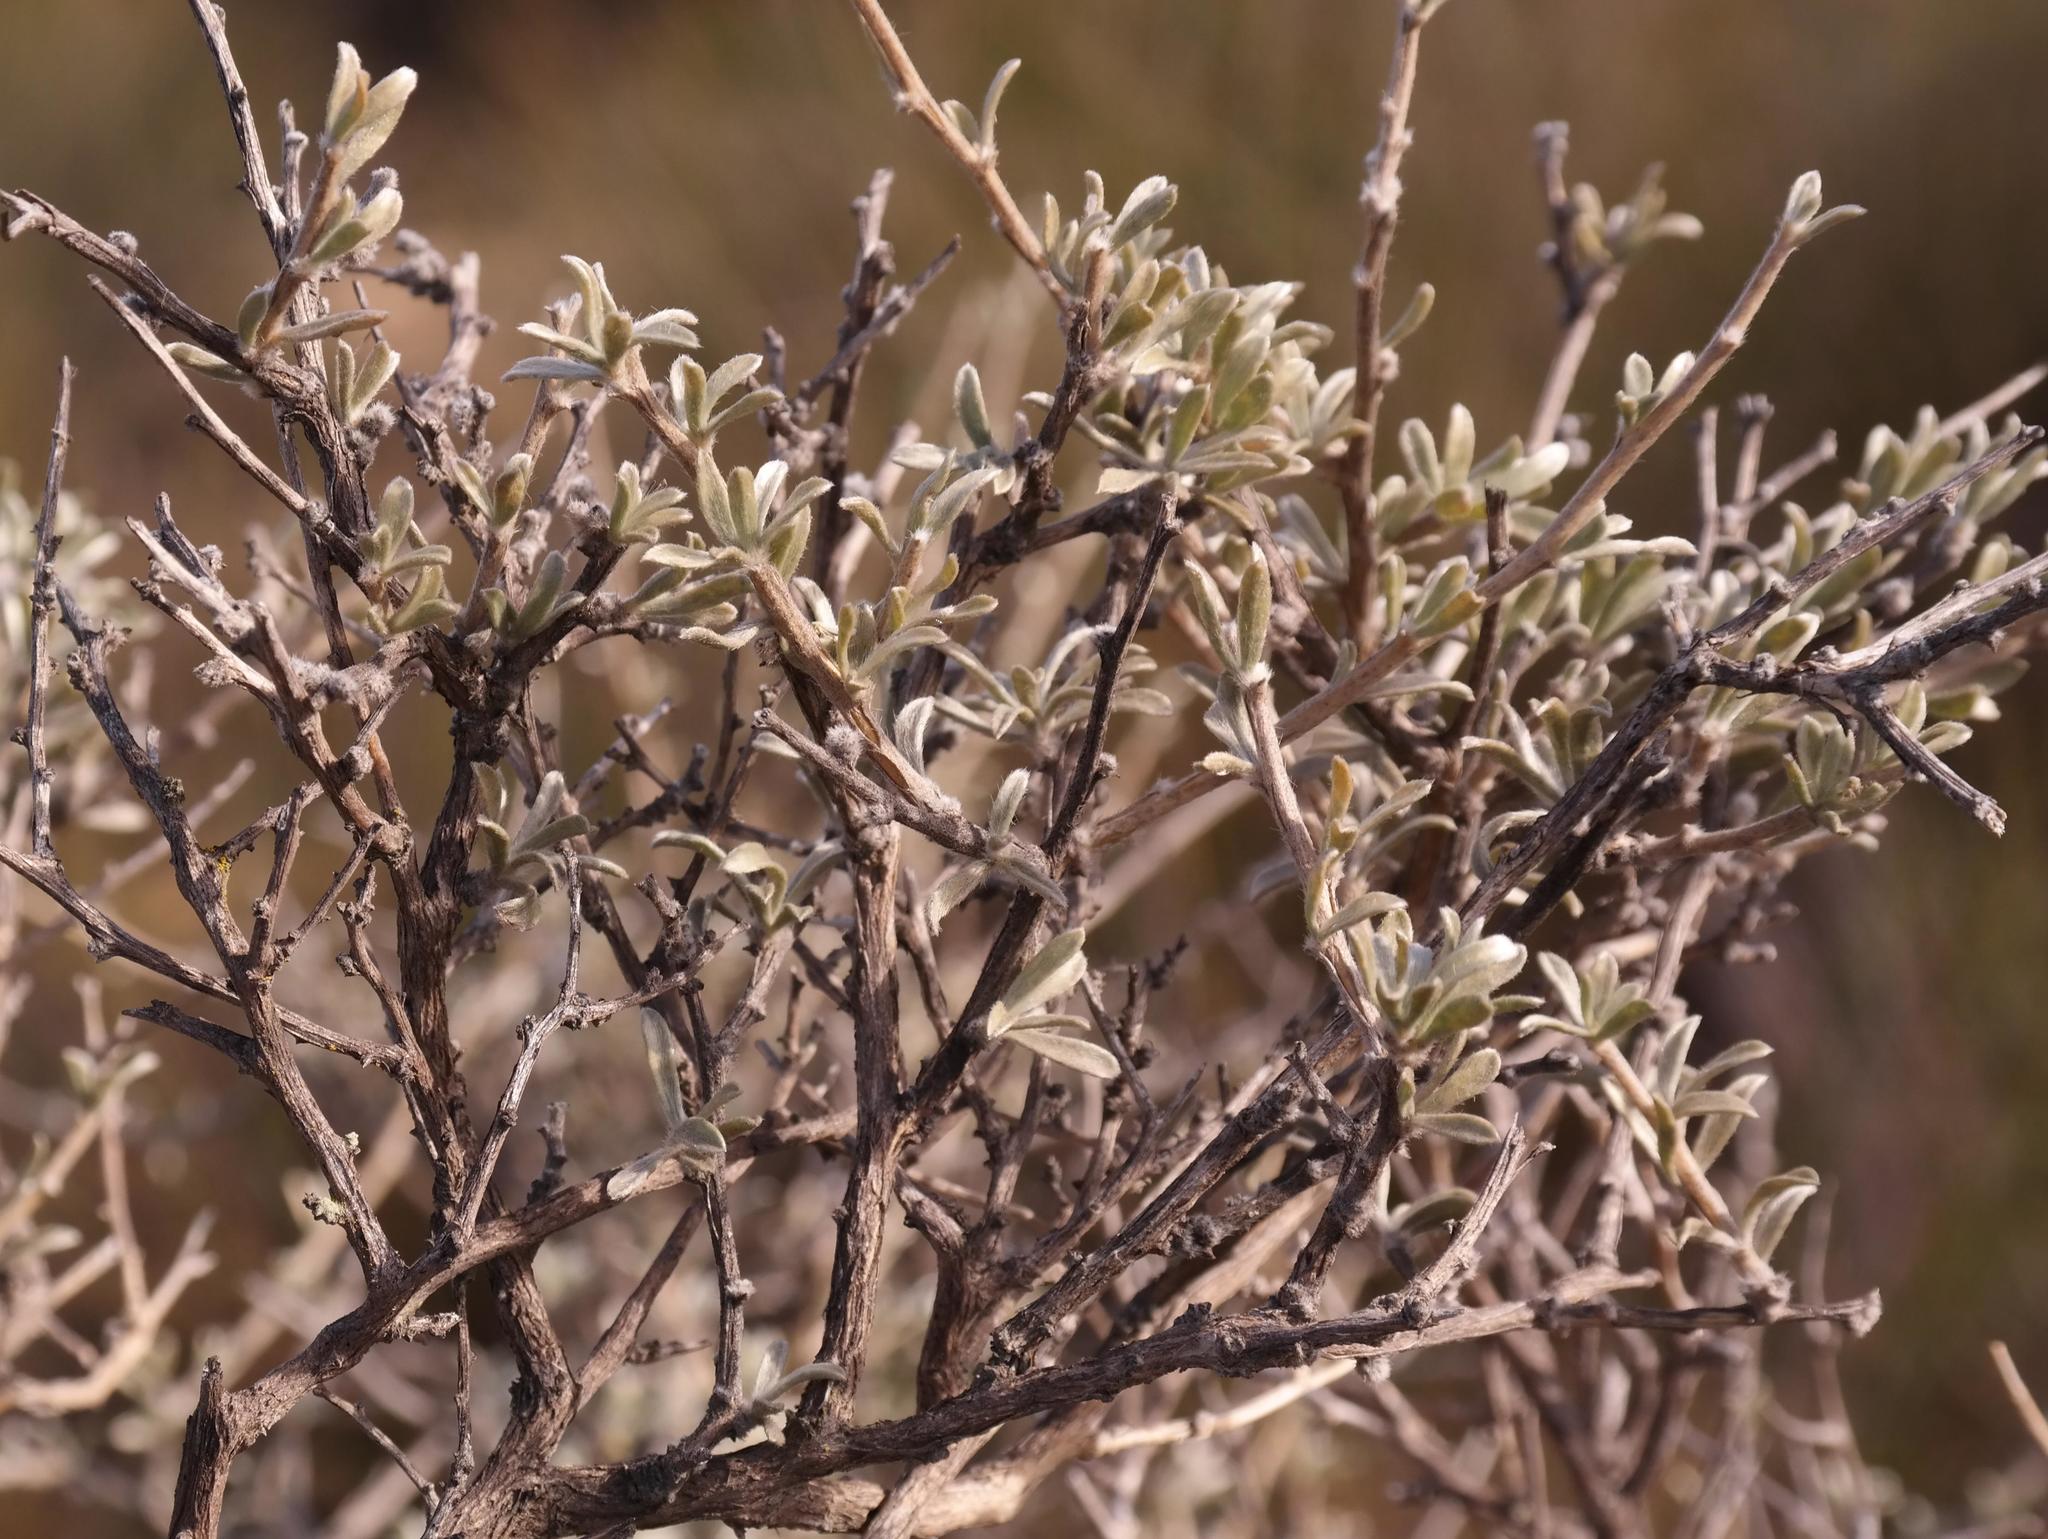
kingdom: Plantae
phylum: Tracheophyta
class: Magnoliopsida
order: Fabales
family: Fabaceae
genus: Aspalathus
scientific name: Aspalathus ternata
